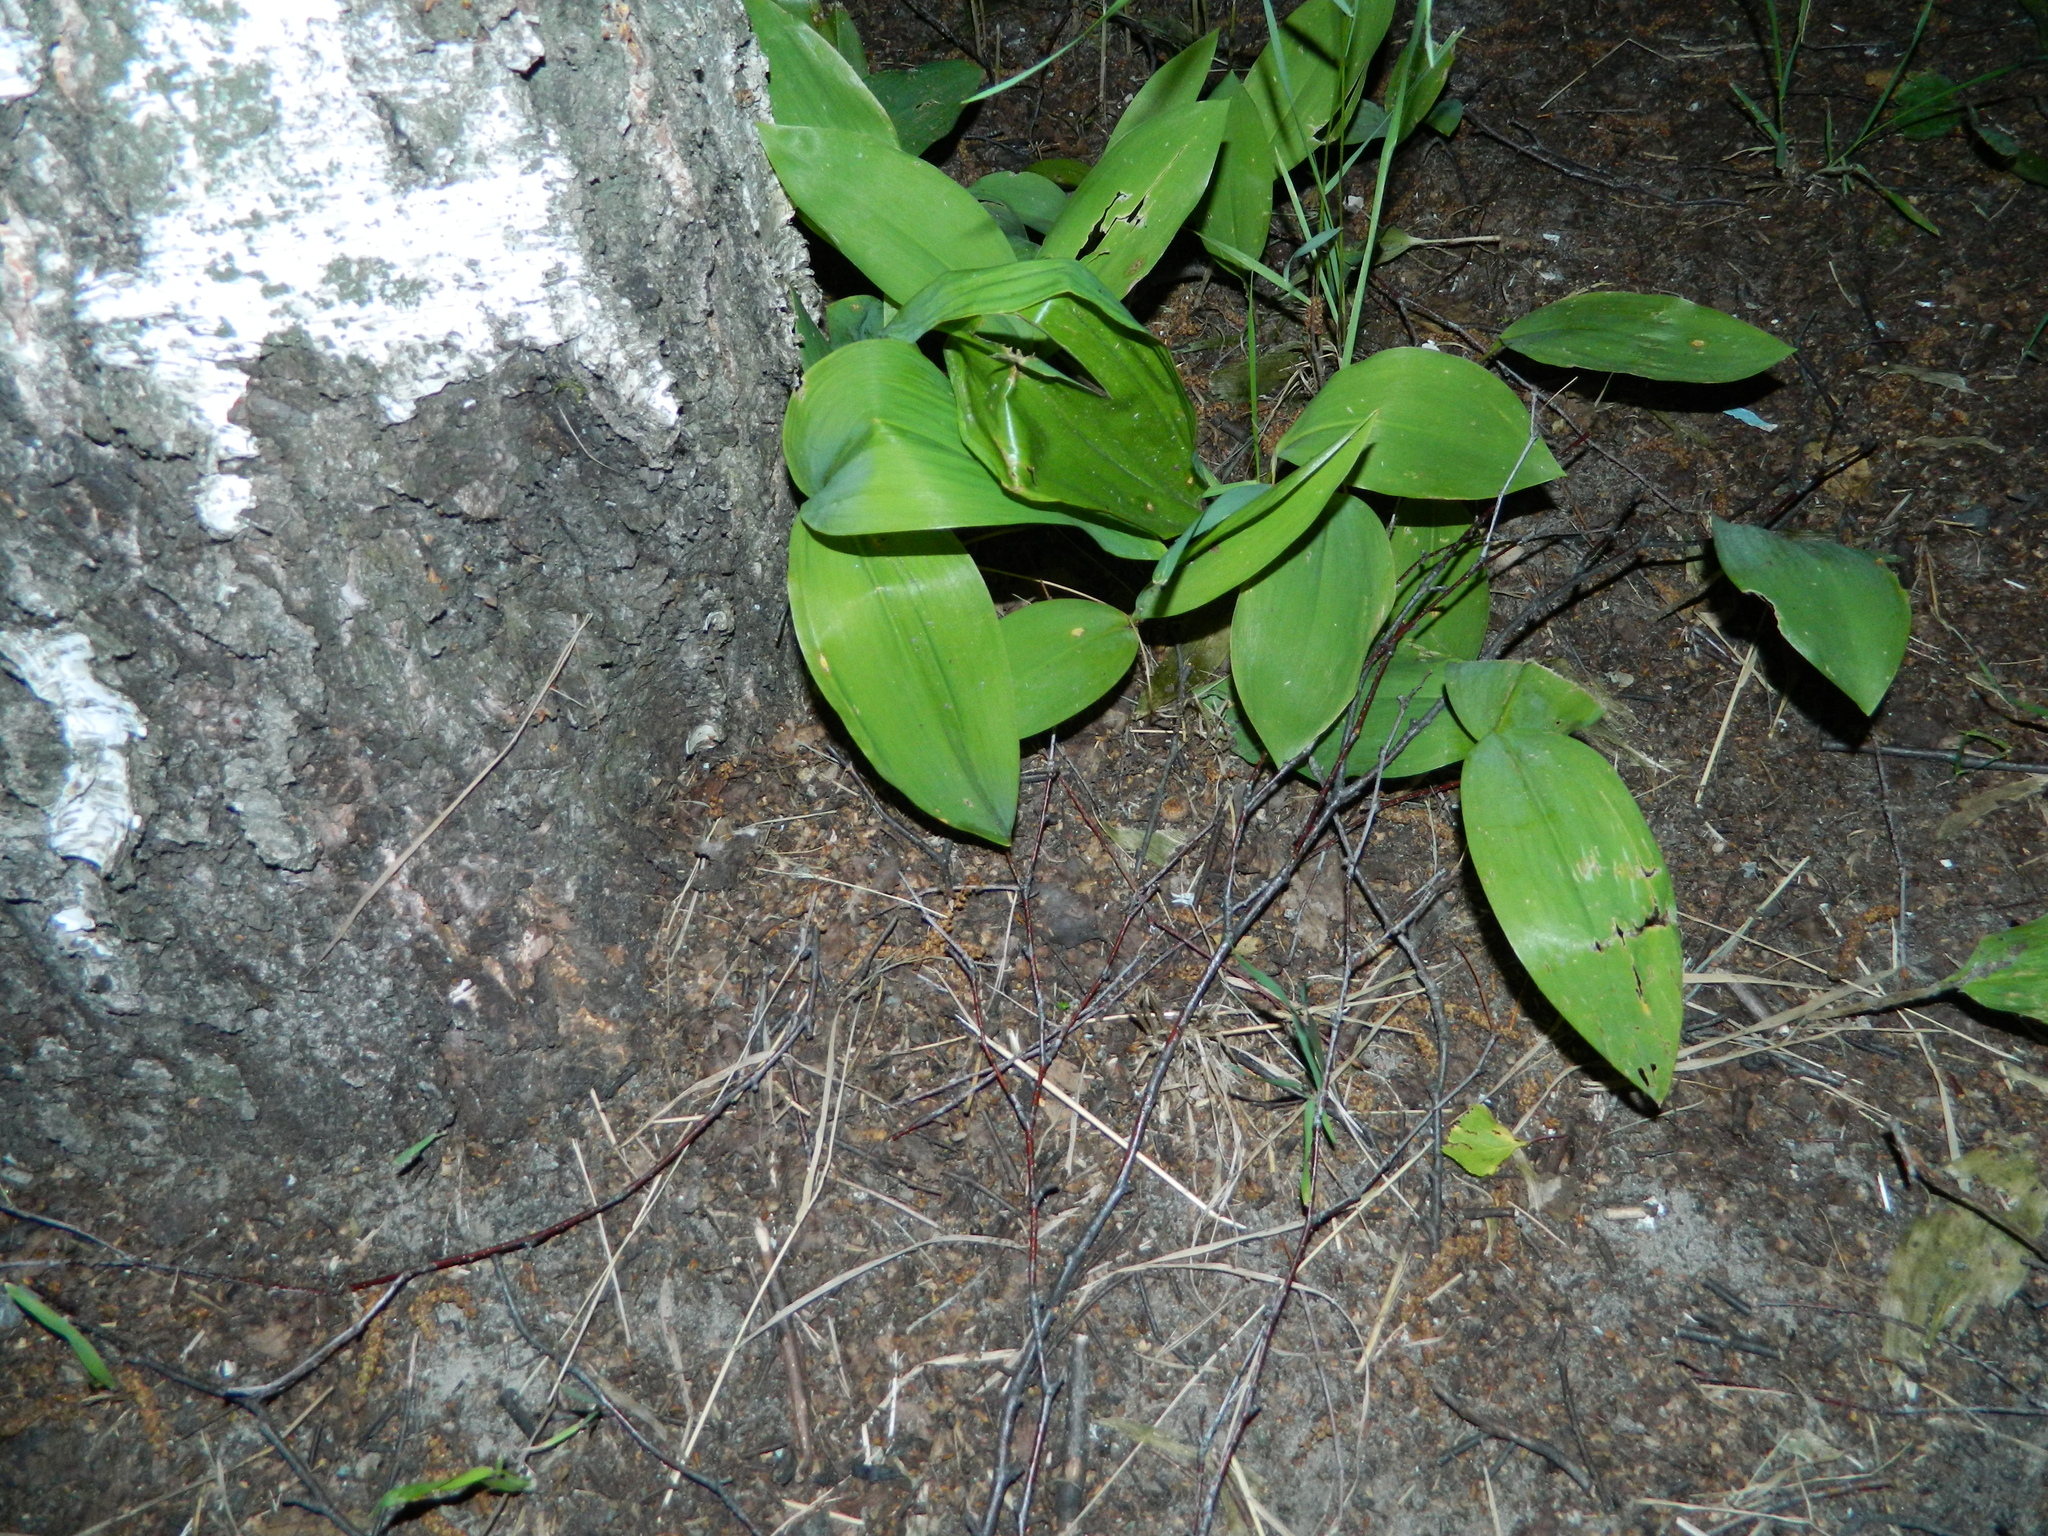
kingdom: Plantae
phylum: Tracheophyta
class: Liliopsida
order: Asparagales
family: Asparagaceae
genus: Convallaria
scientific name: Convallaria majalis
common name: Lily-of-the-valley
